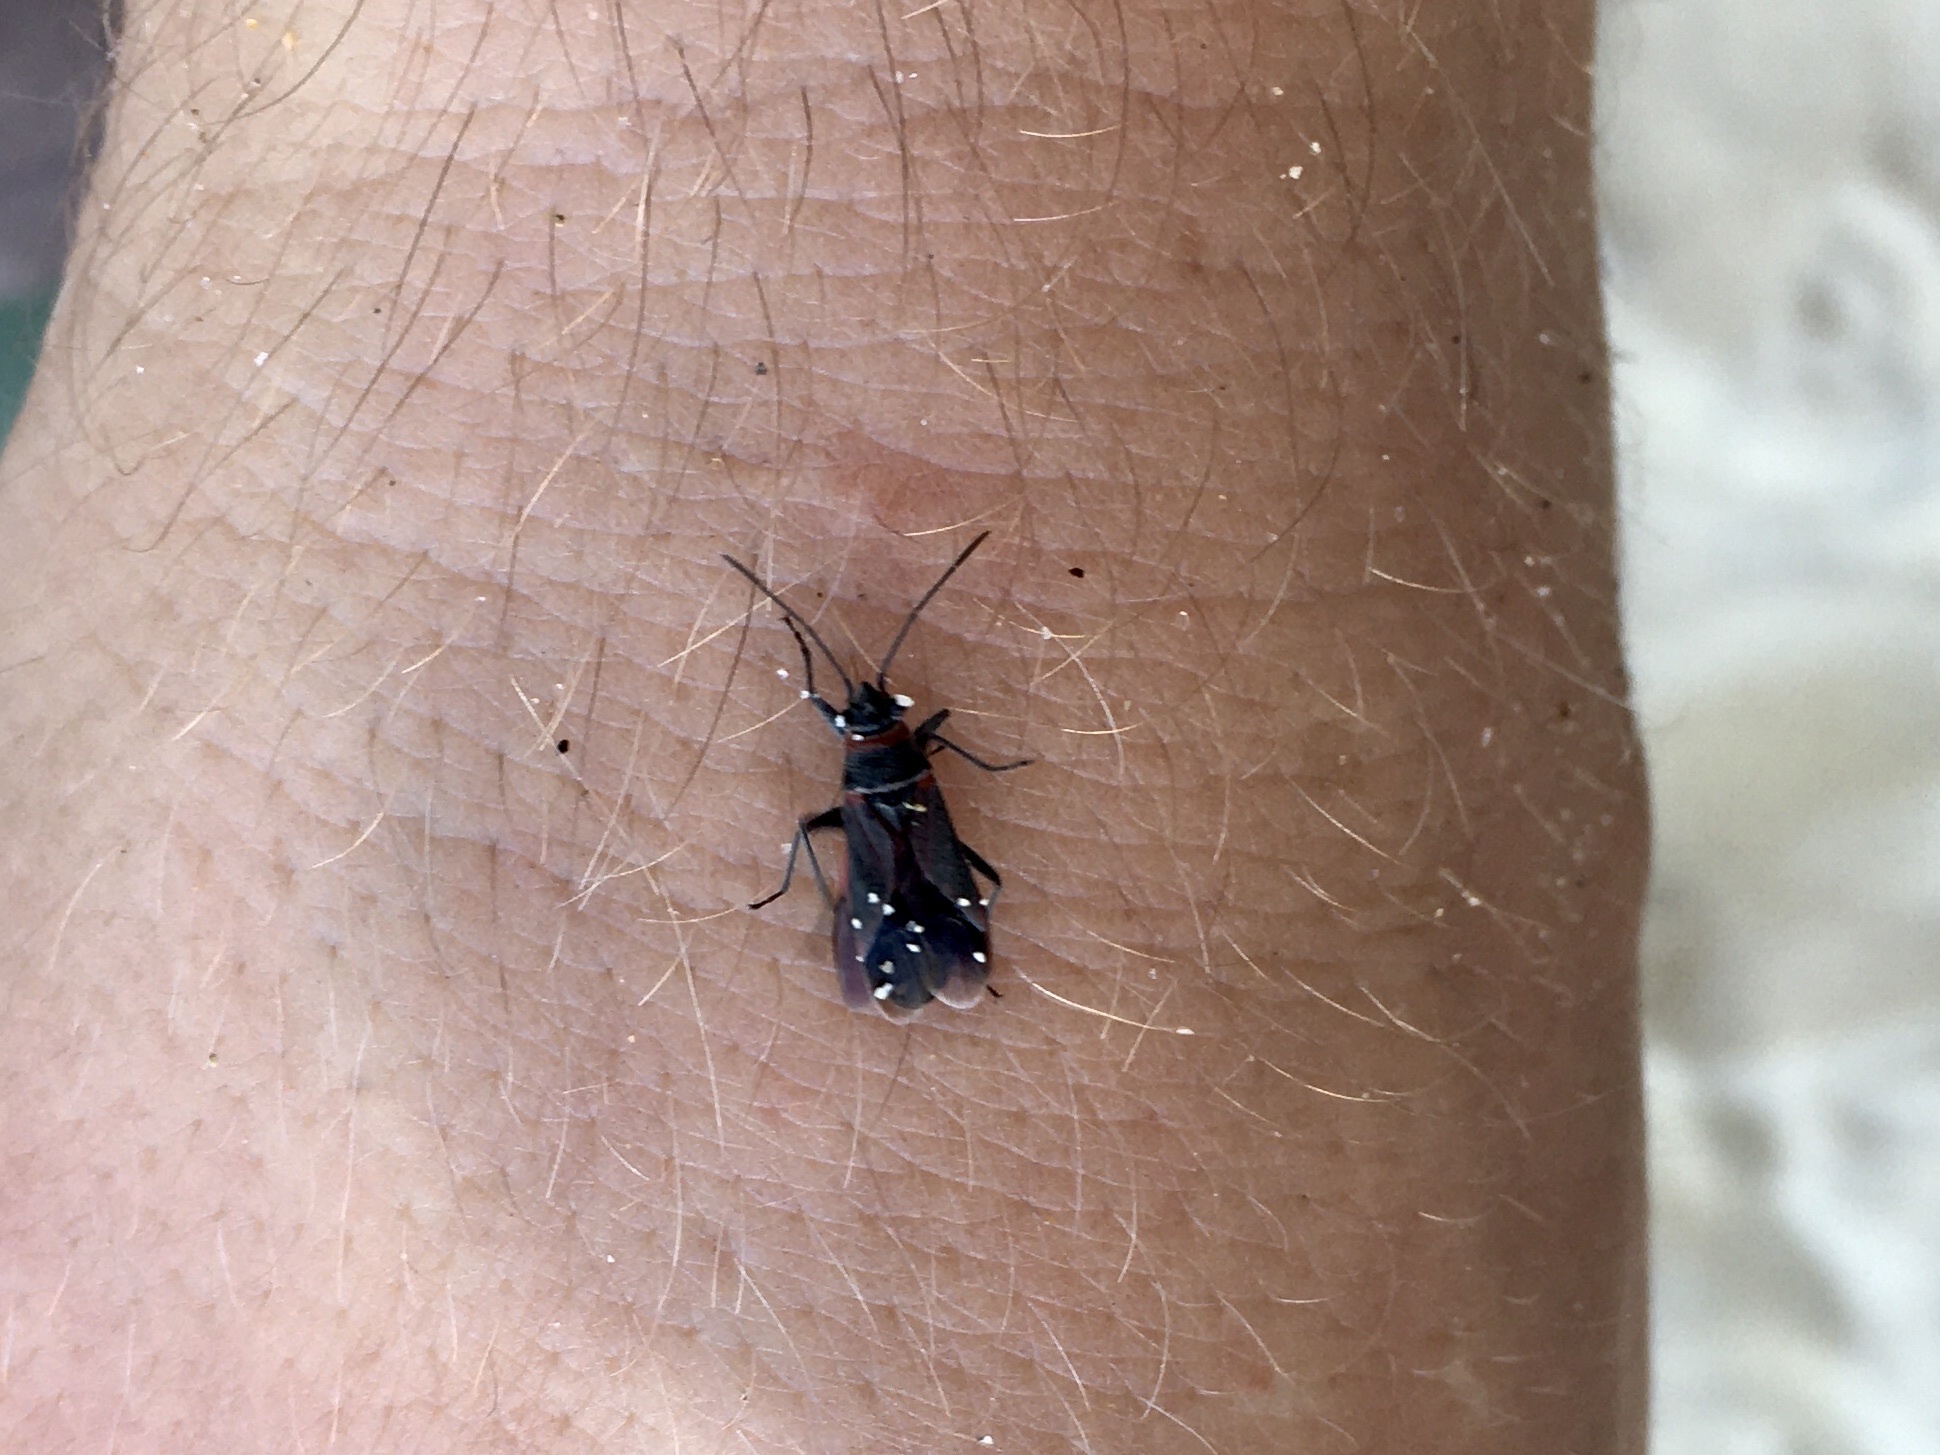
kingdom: Animalia
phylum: Arthropoda
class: Insecta
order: Hemiptera
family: Lygaeidae
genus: Arocatus
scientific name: Arocatus rusticus
